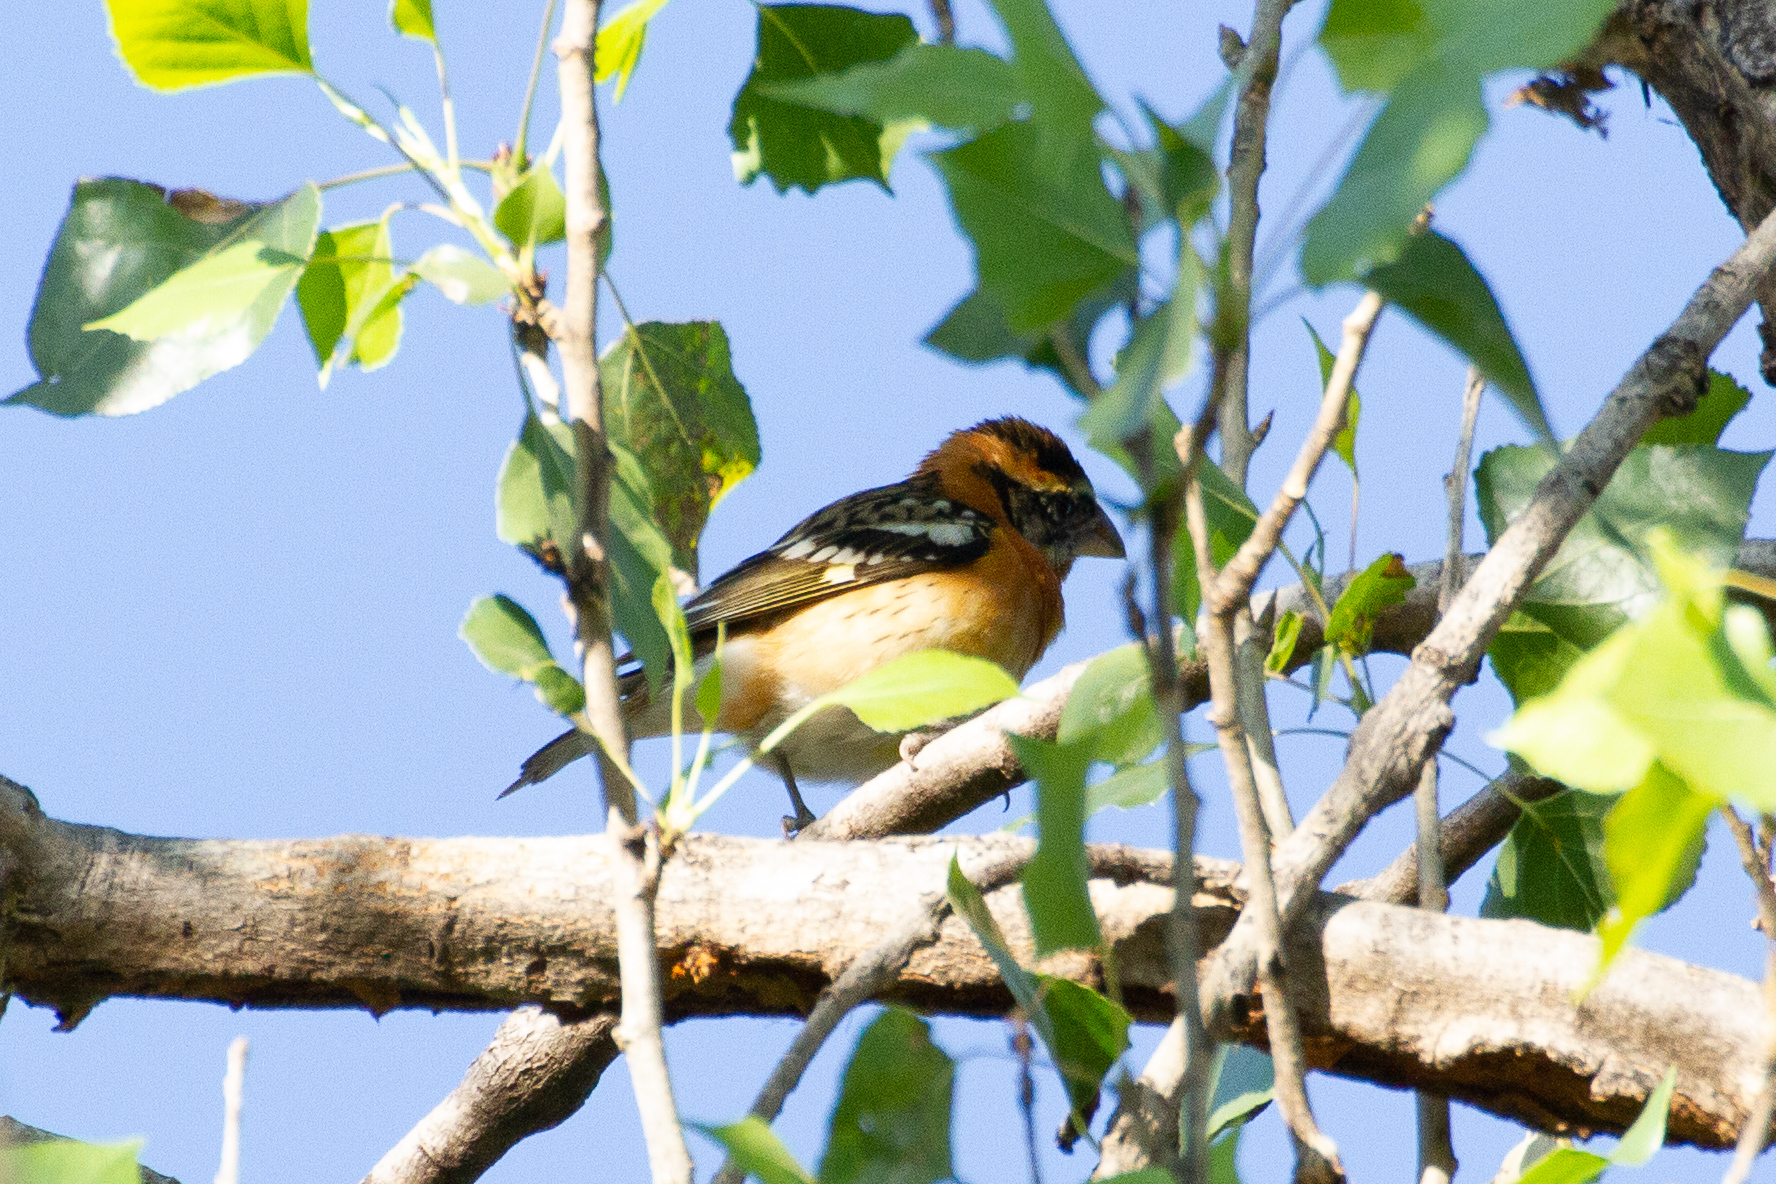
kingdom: Animalia
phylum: Chordata
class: Aves
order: Passeriformes
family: Cardinalidae
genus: Pheucticus
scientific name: Pheucticus melanocephalus
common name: Black-headed grosbeak
